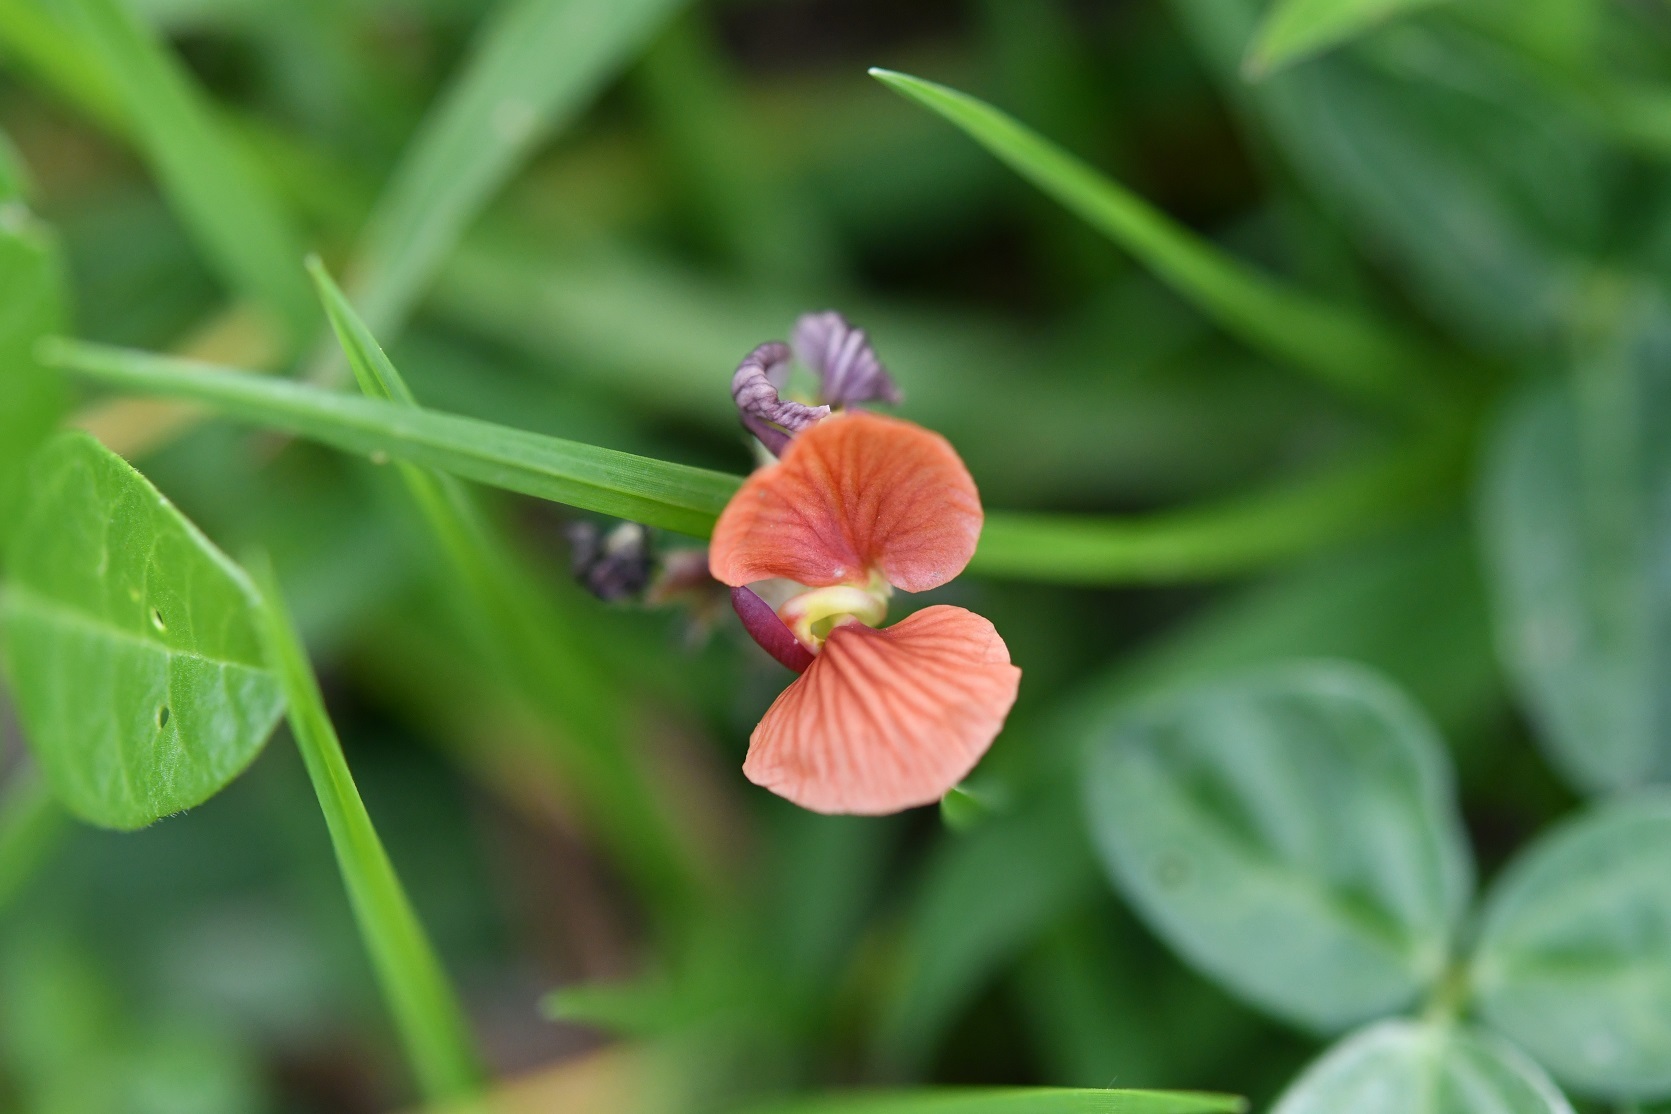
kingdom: Plantae
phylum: Tracheophyta
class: Magnoliopsida
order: Fabales
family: Fabaceae
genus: Macroptilium
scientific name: Macroptilium gibbosifolium
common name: Variableleaf bushbean
